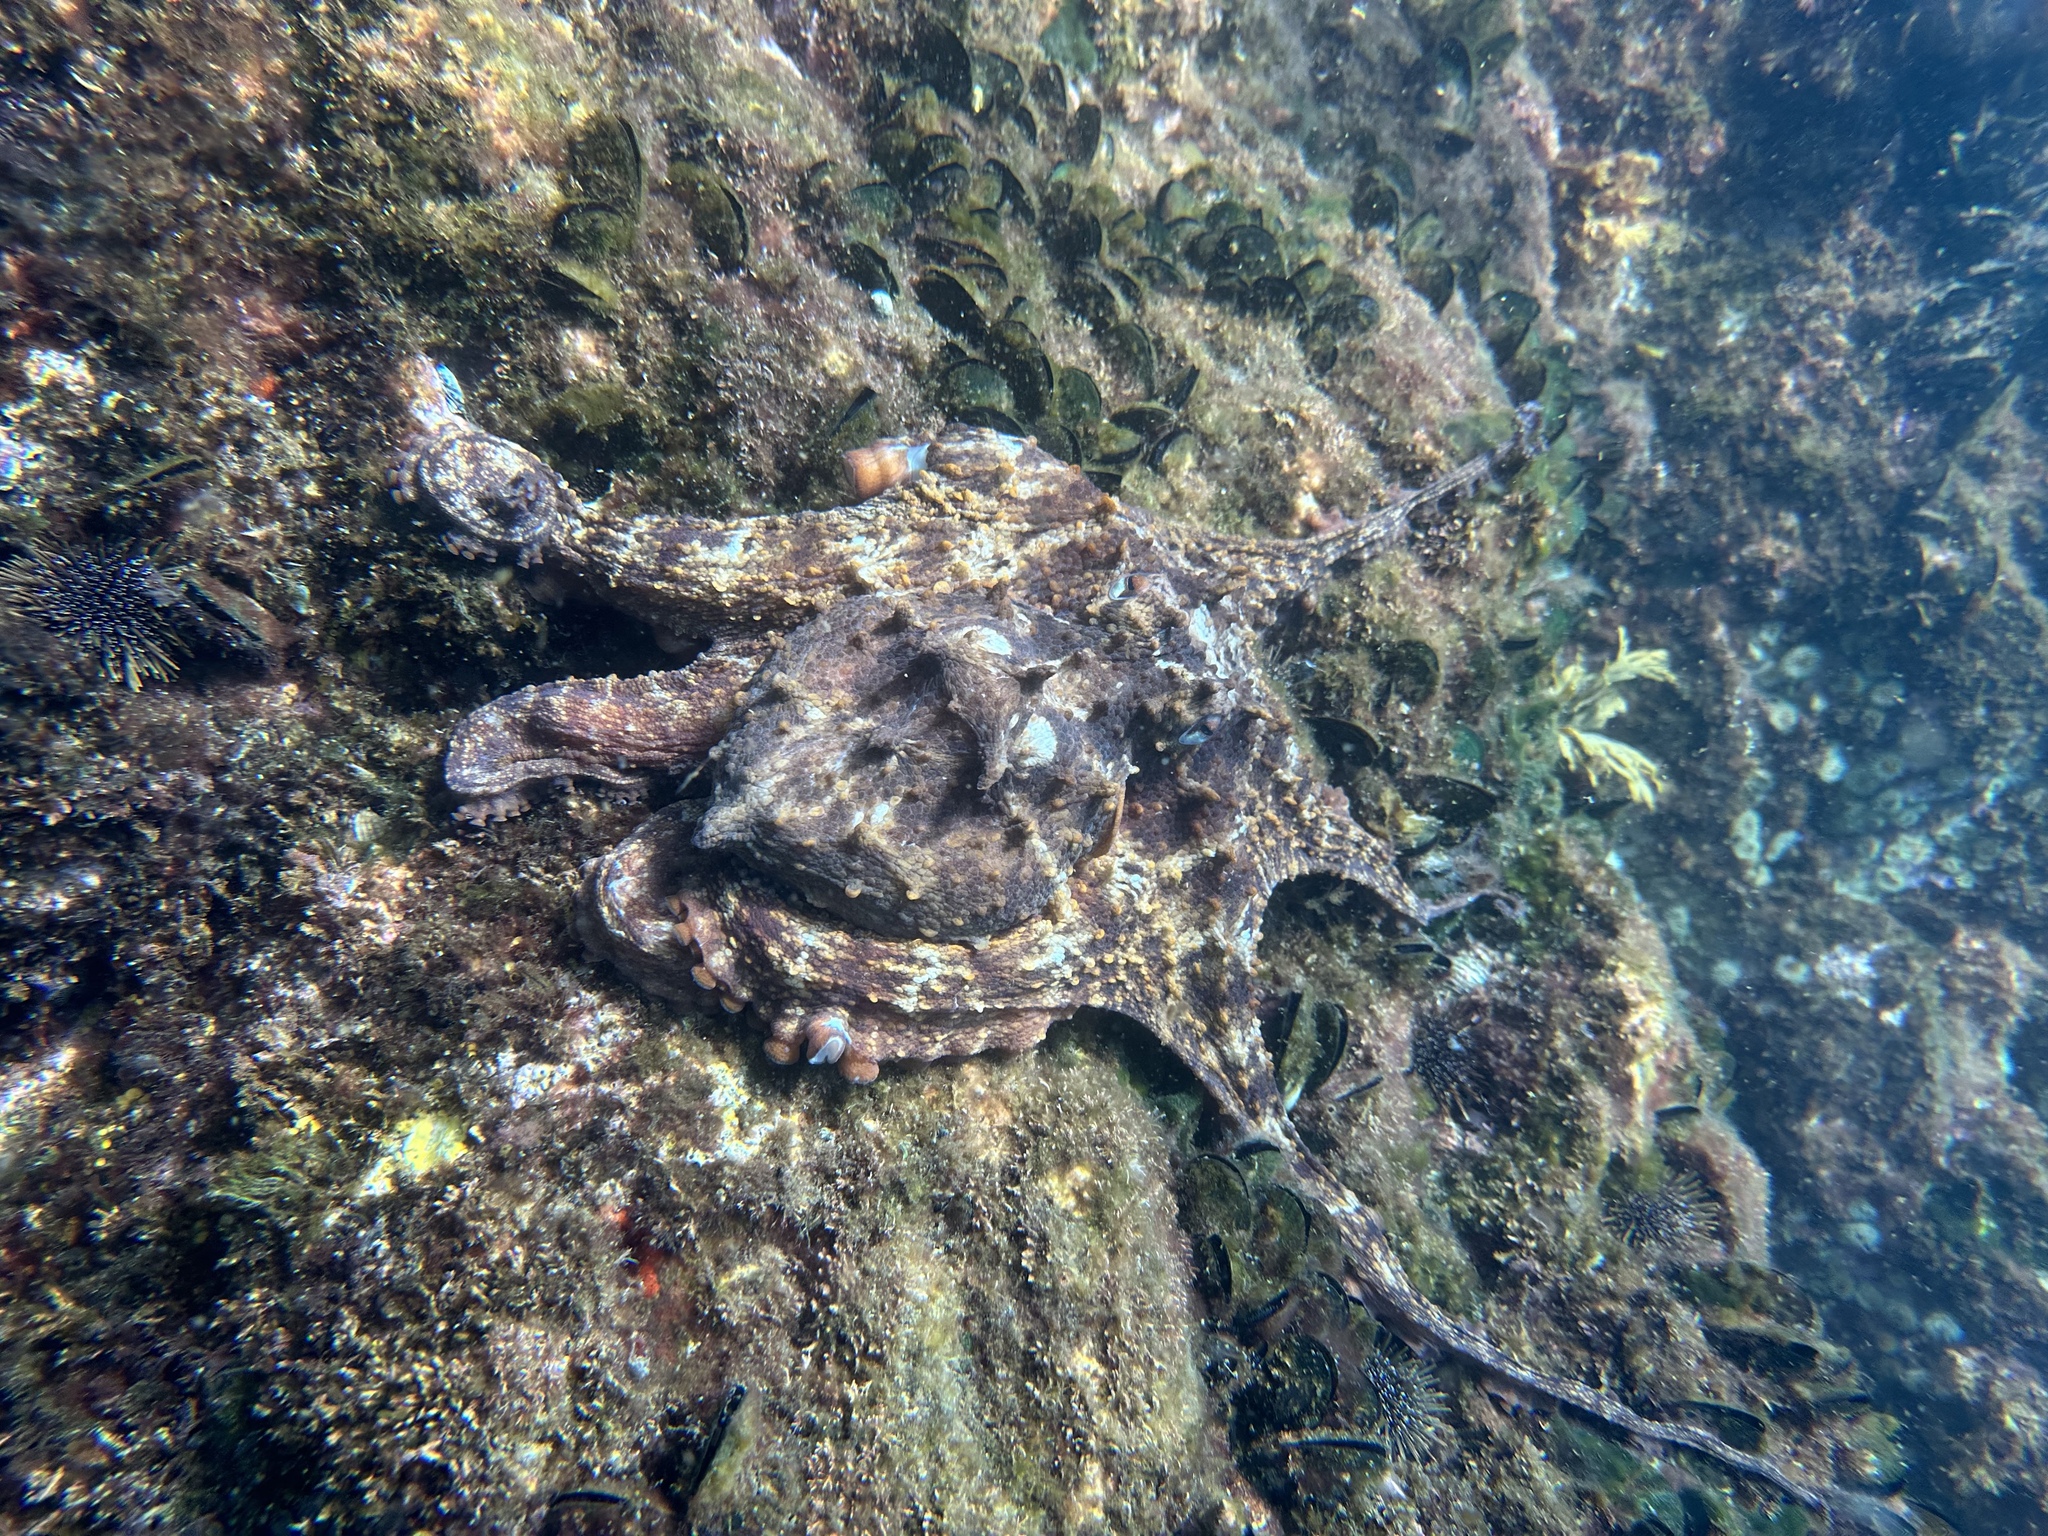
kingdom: Animalia
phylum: Mollusca
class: Cephalopoda
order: Octopoda
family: Octopodidae
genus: Macroctopus
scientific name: Macroctopus maorum
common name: Maori octopus
